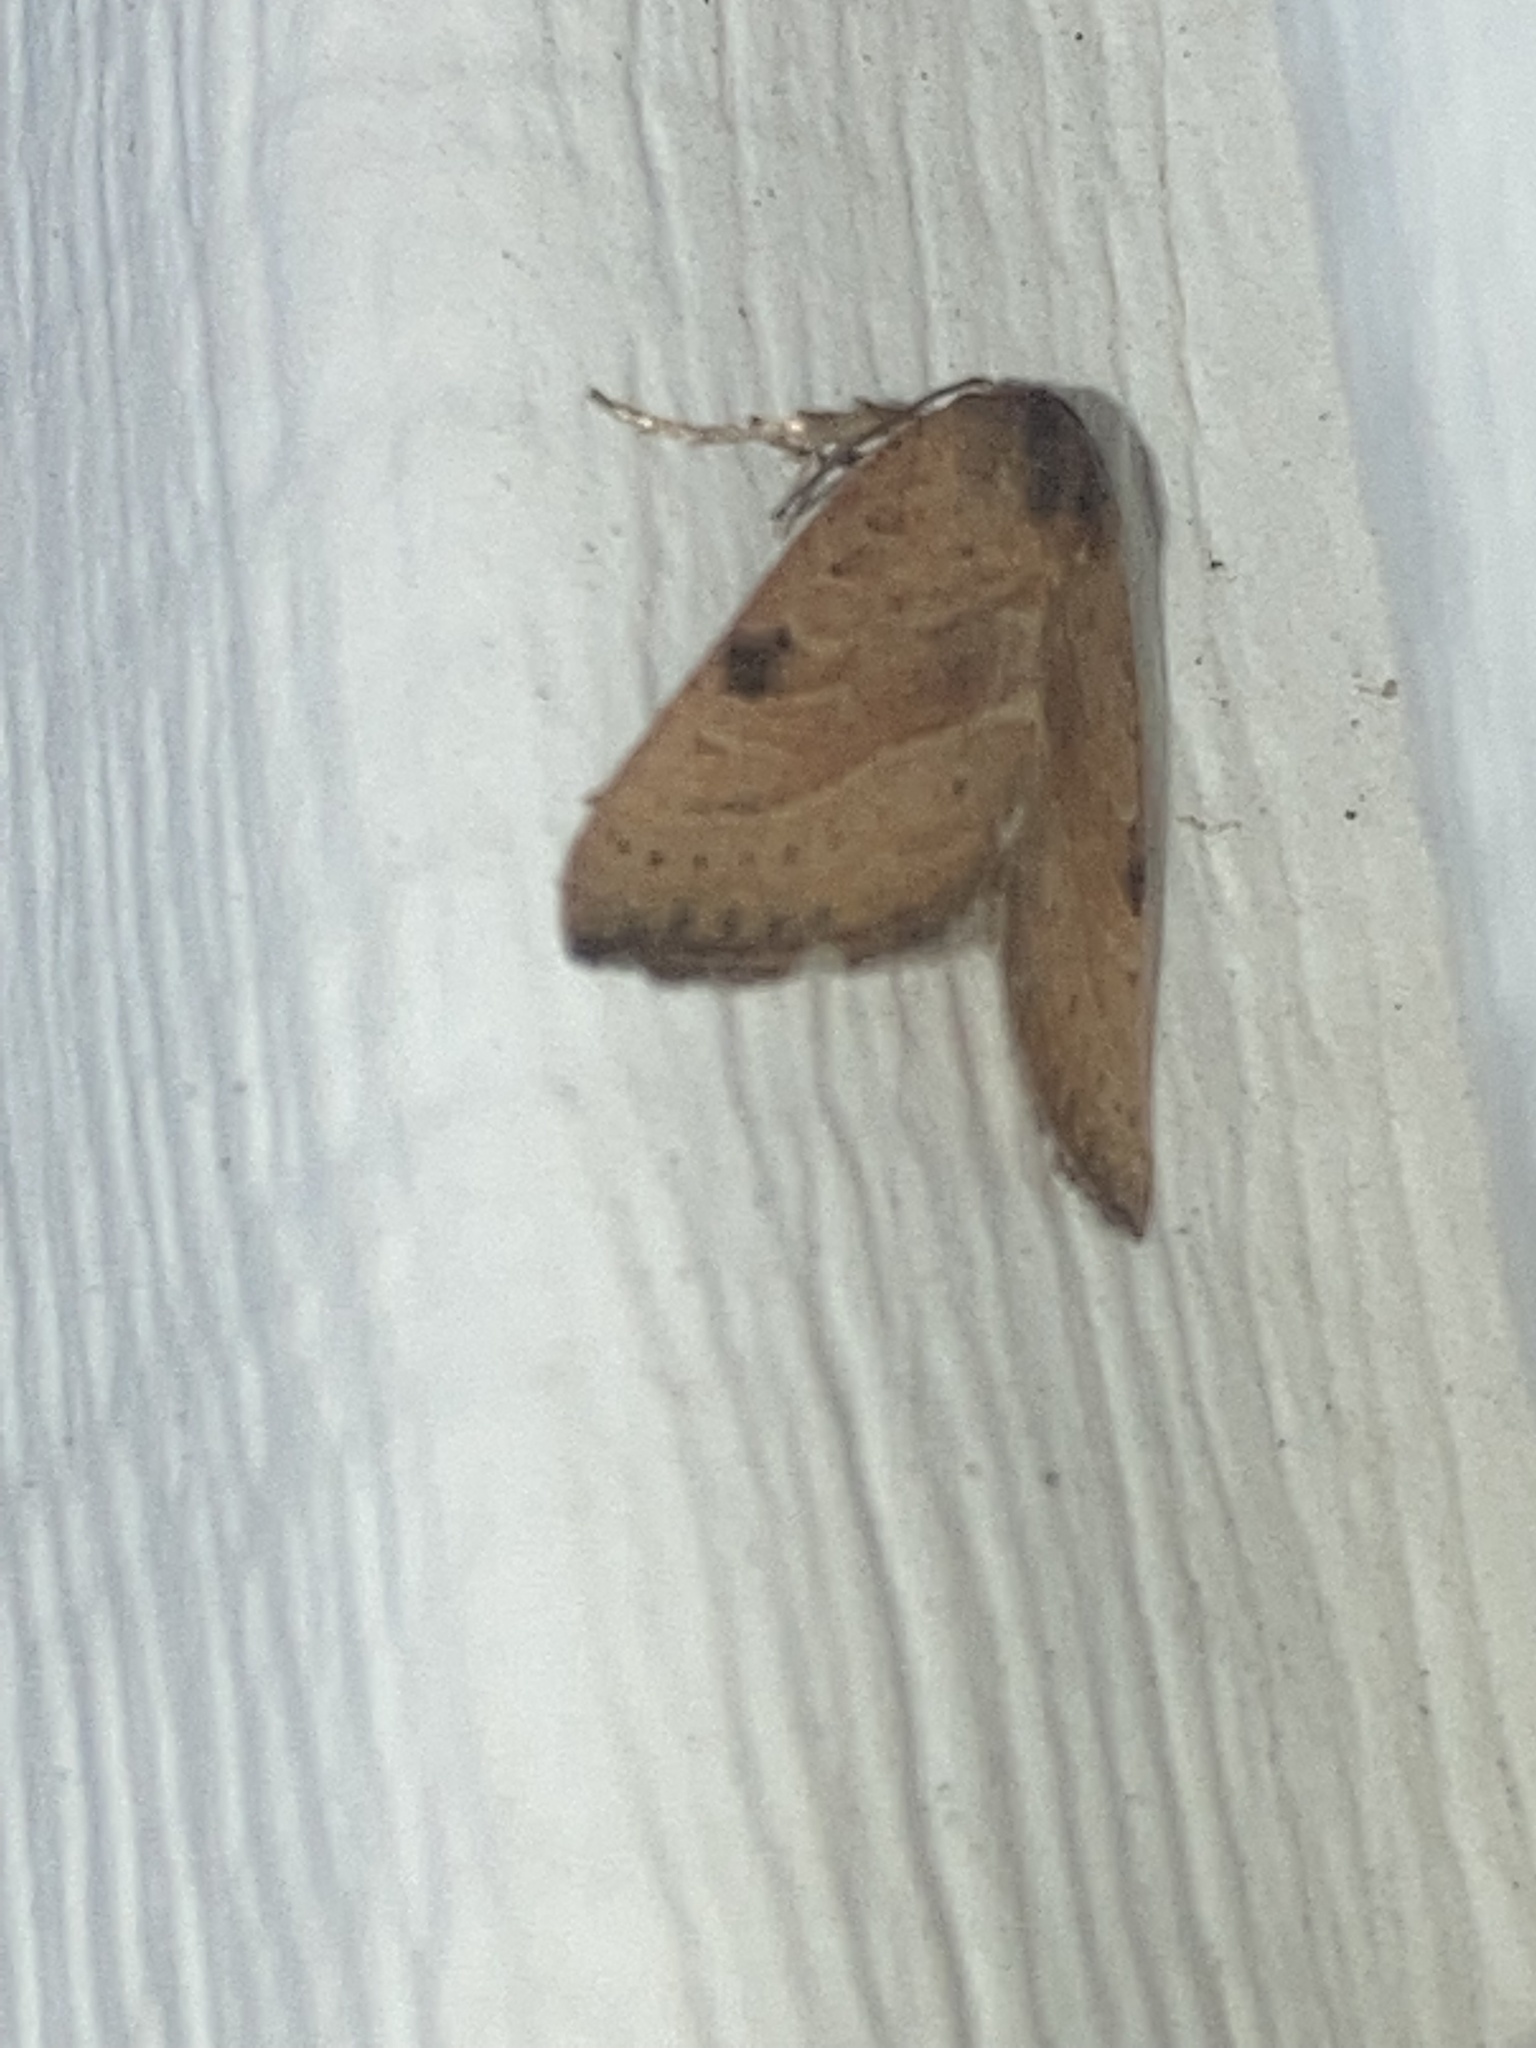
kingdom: Animalia
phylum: Arthropoda
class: Insecta
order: Lepidoptera
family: Noctuidae
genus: Galgula
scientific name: Galgula partita
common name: Wedgeling
